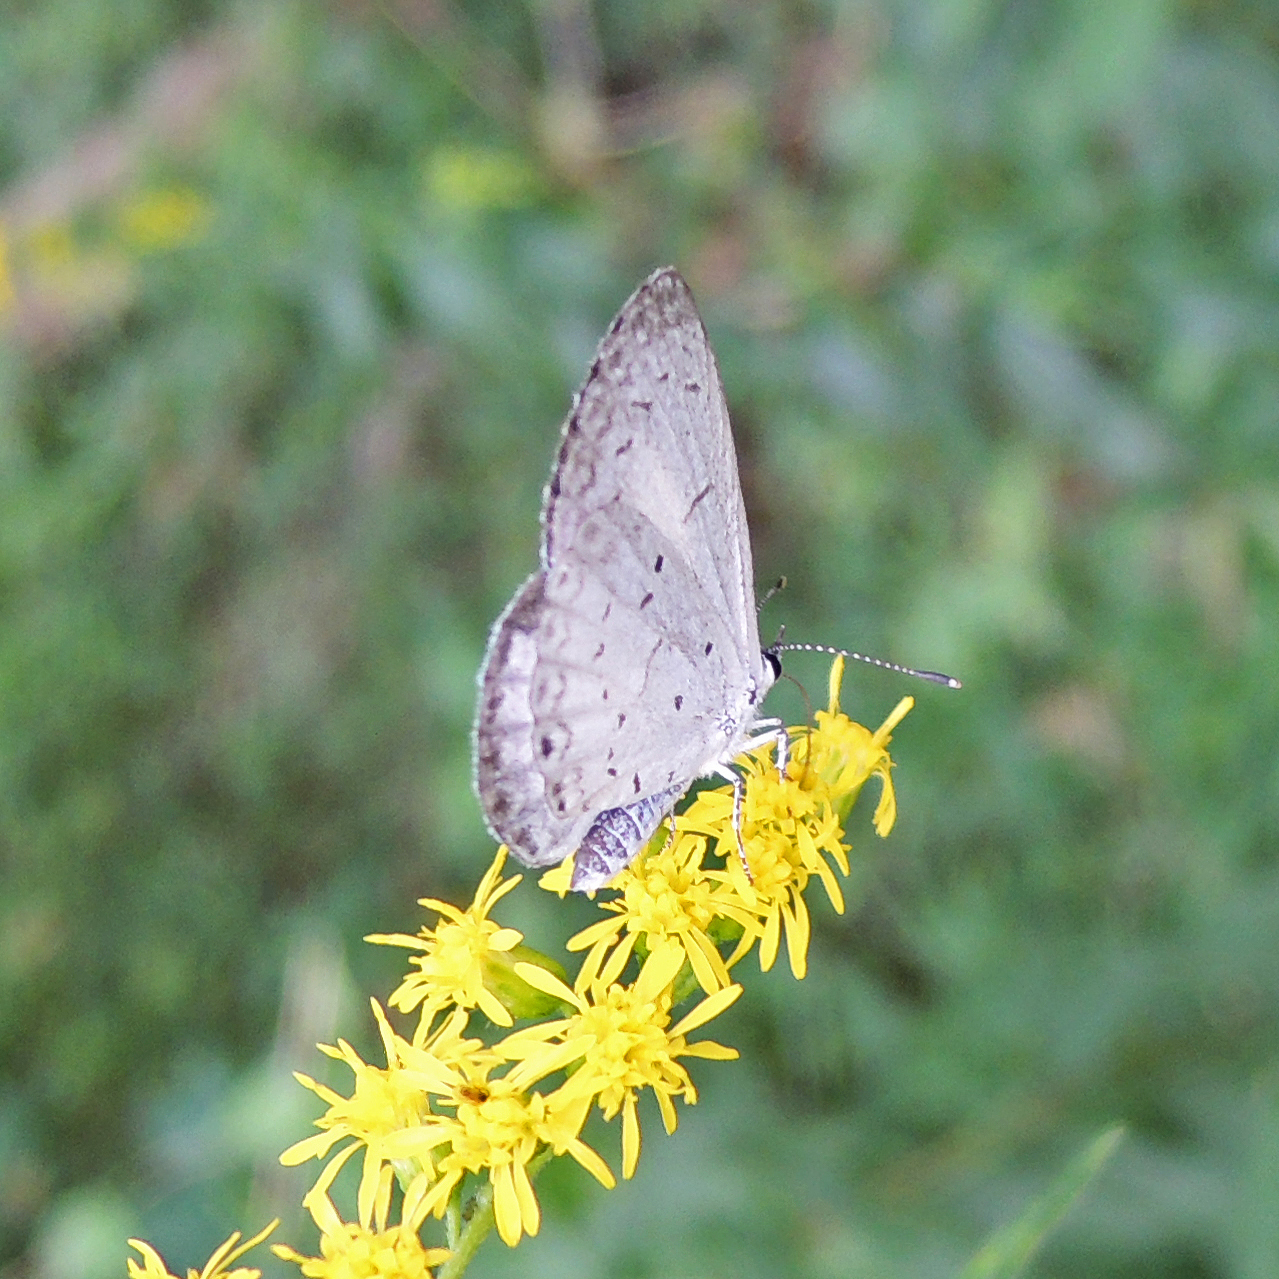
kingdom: Animalia
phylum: Arthropoda
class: Insecta
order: Lepidoptera
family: Lycaenidae
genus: Cyaniris
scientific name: Cyaniris neglecta
